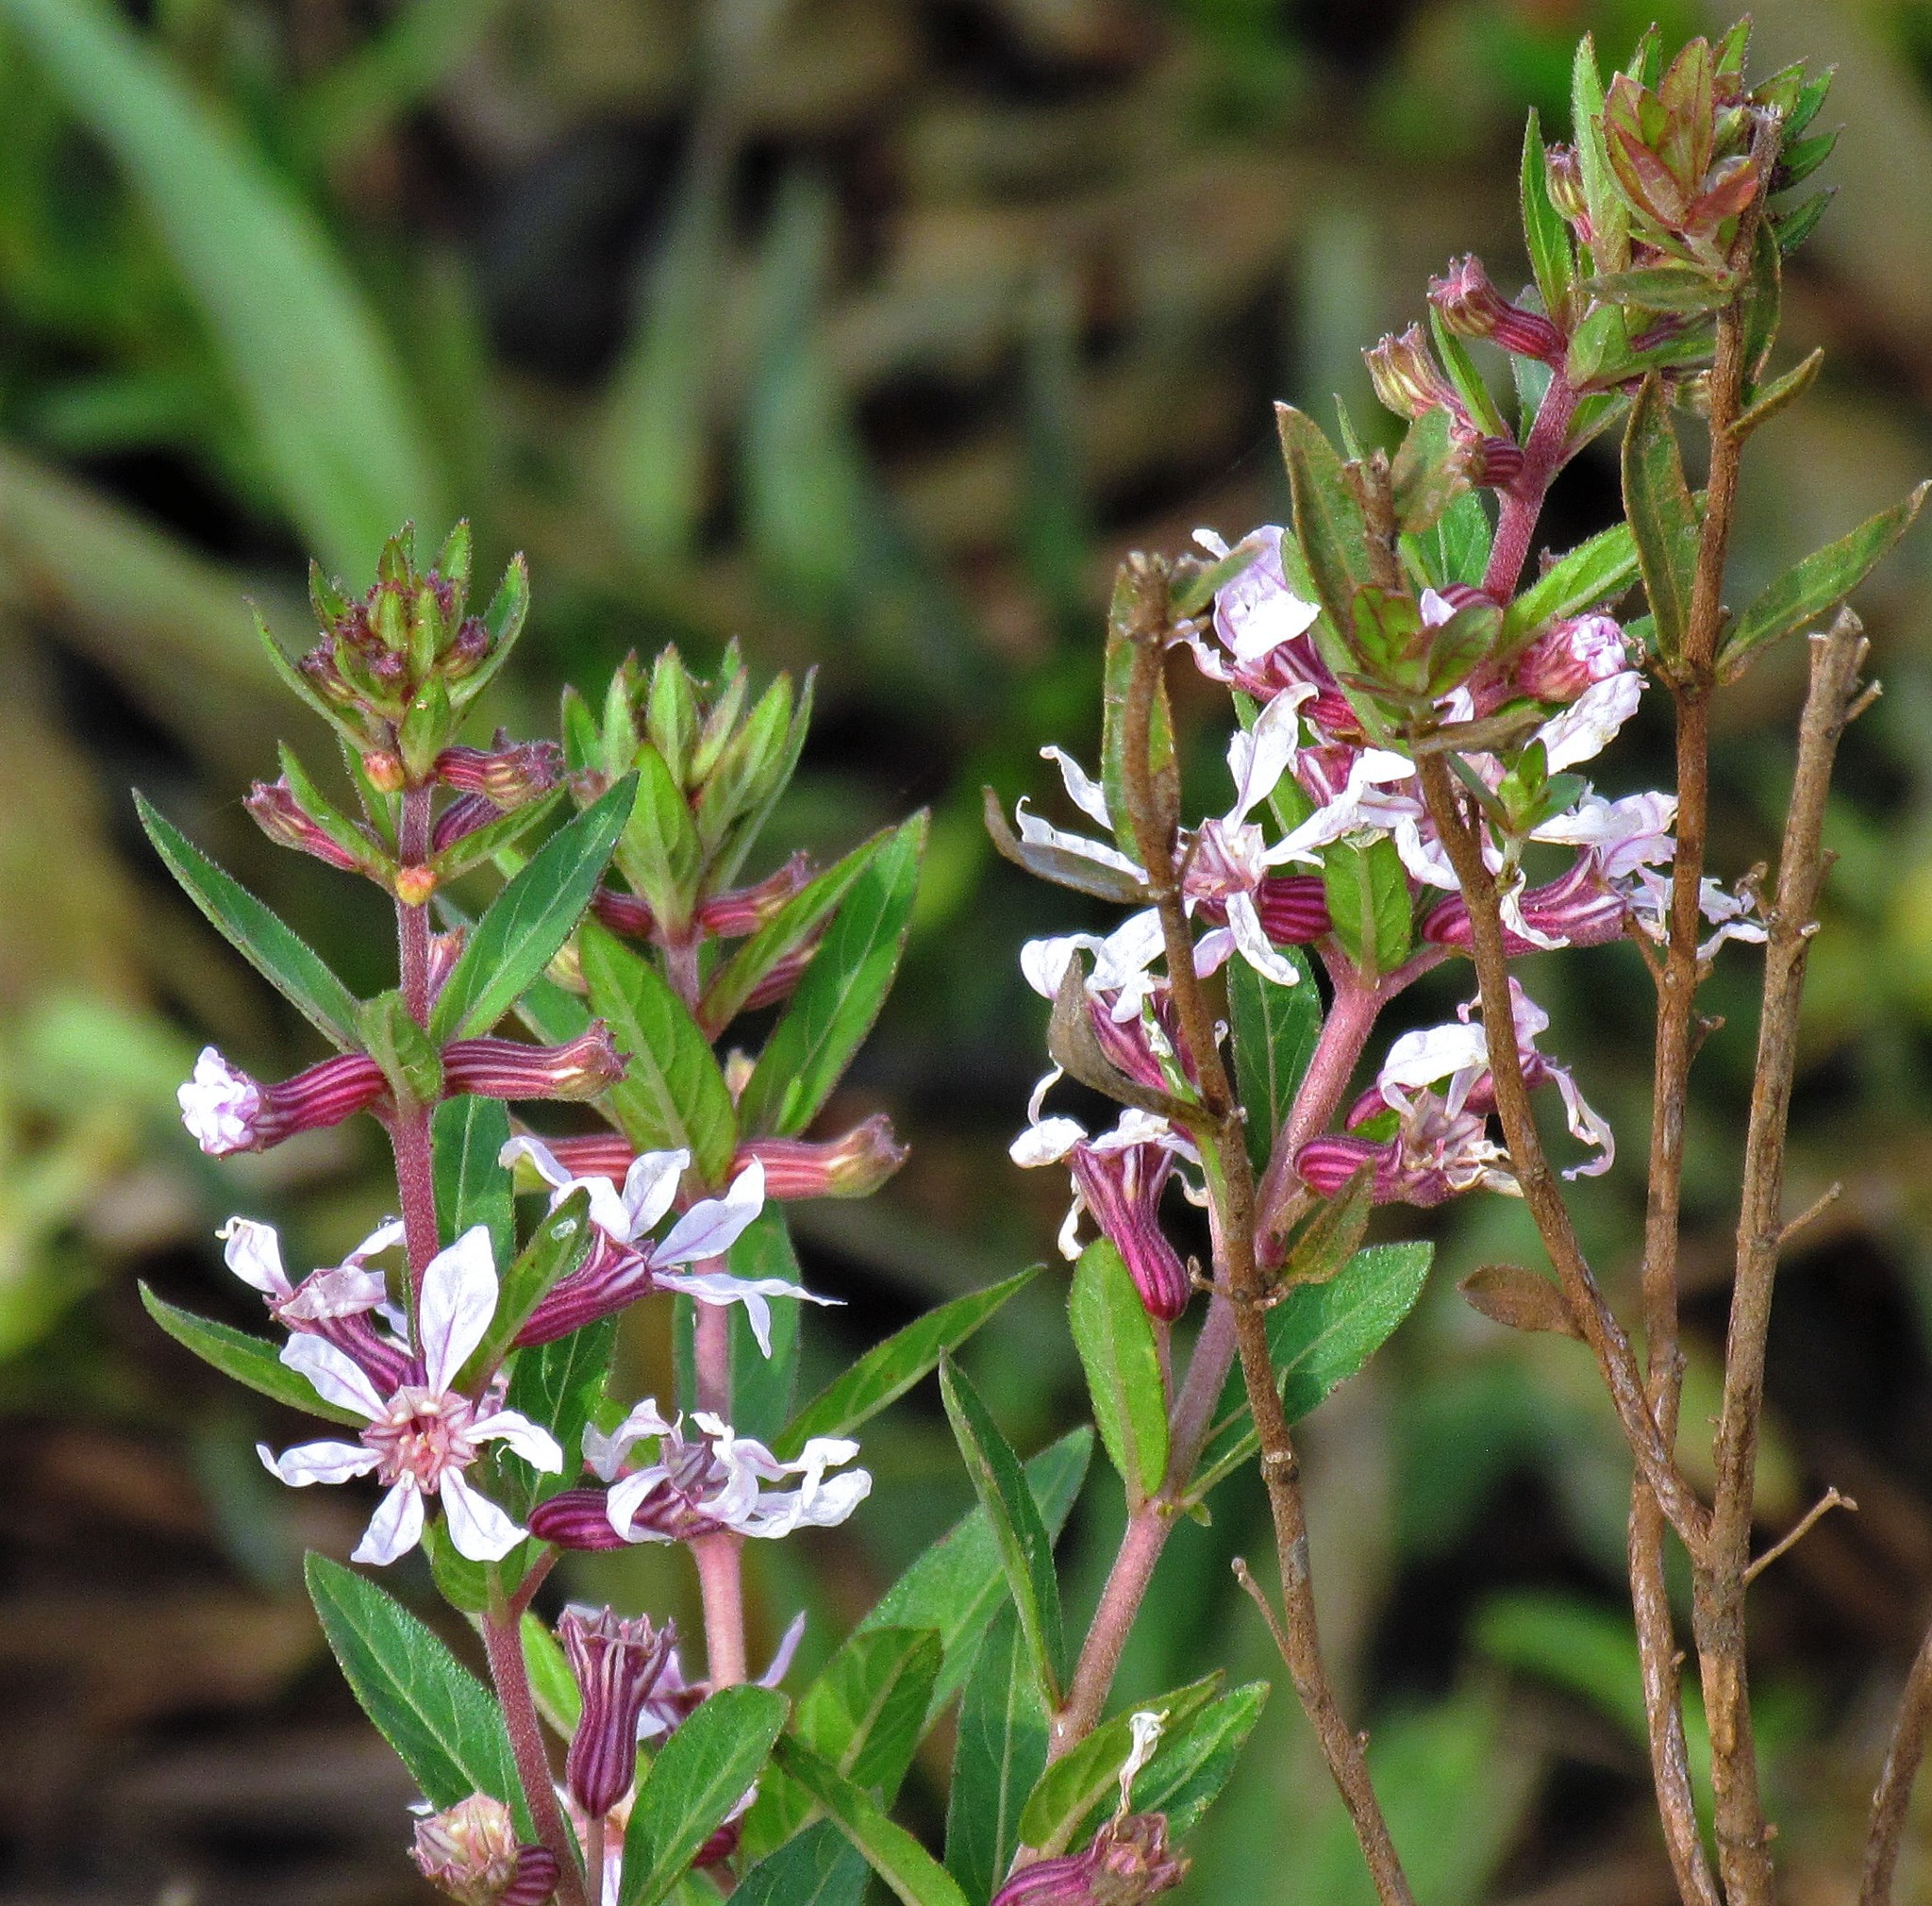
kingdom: Plantae
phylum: Tracheophyta
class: Magnoliopsida
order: Myrtales
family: Lythraceae
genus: Cuphea
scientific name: Cuphea lysimachioides
